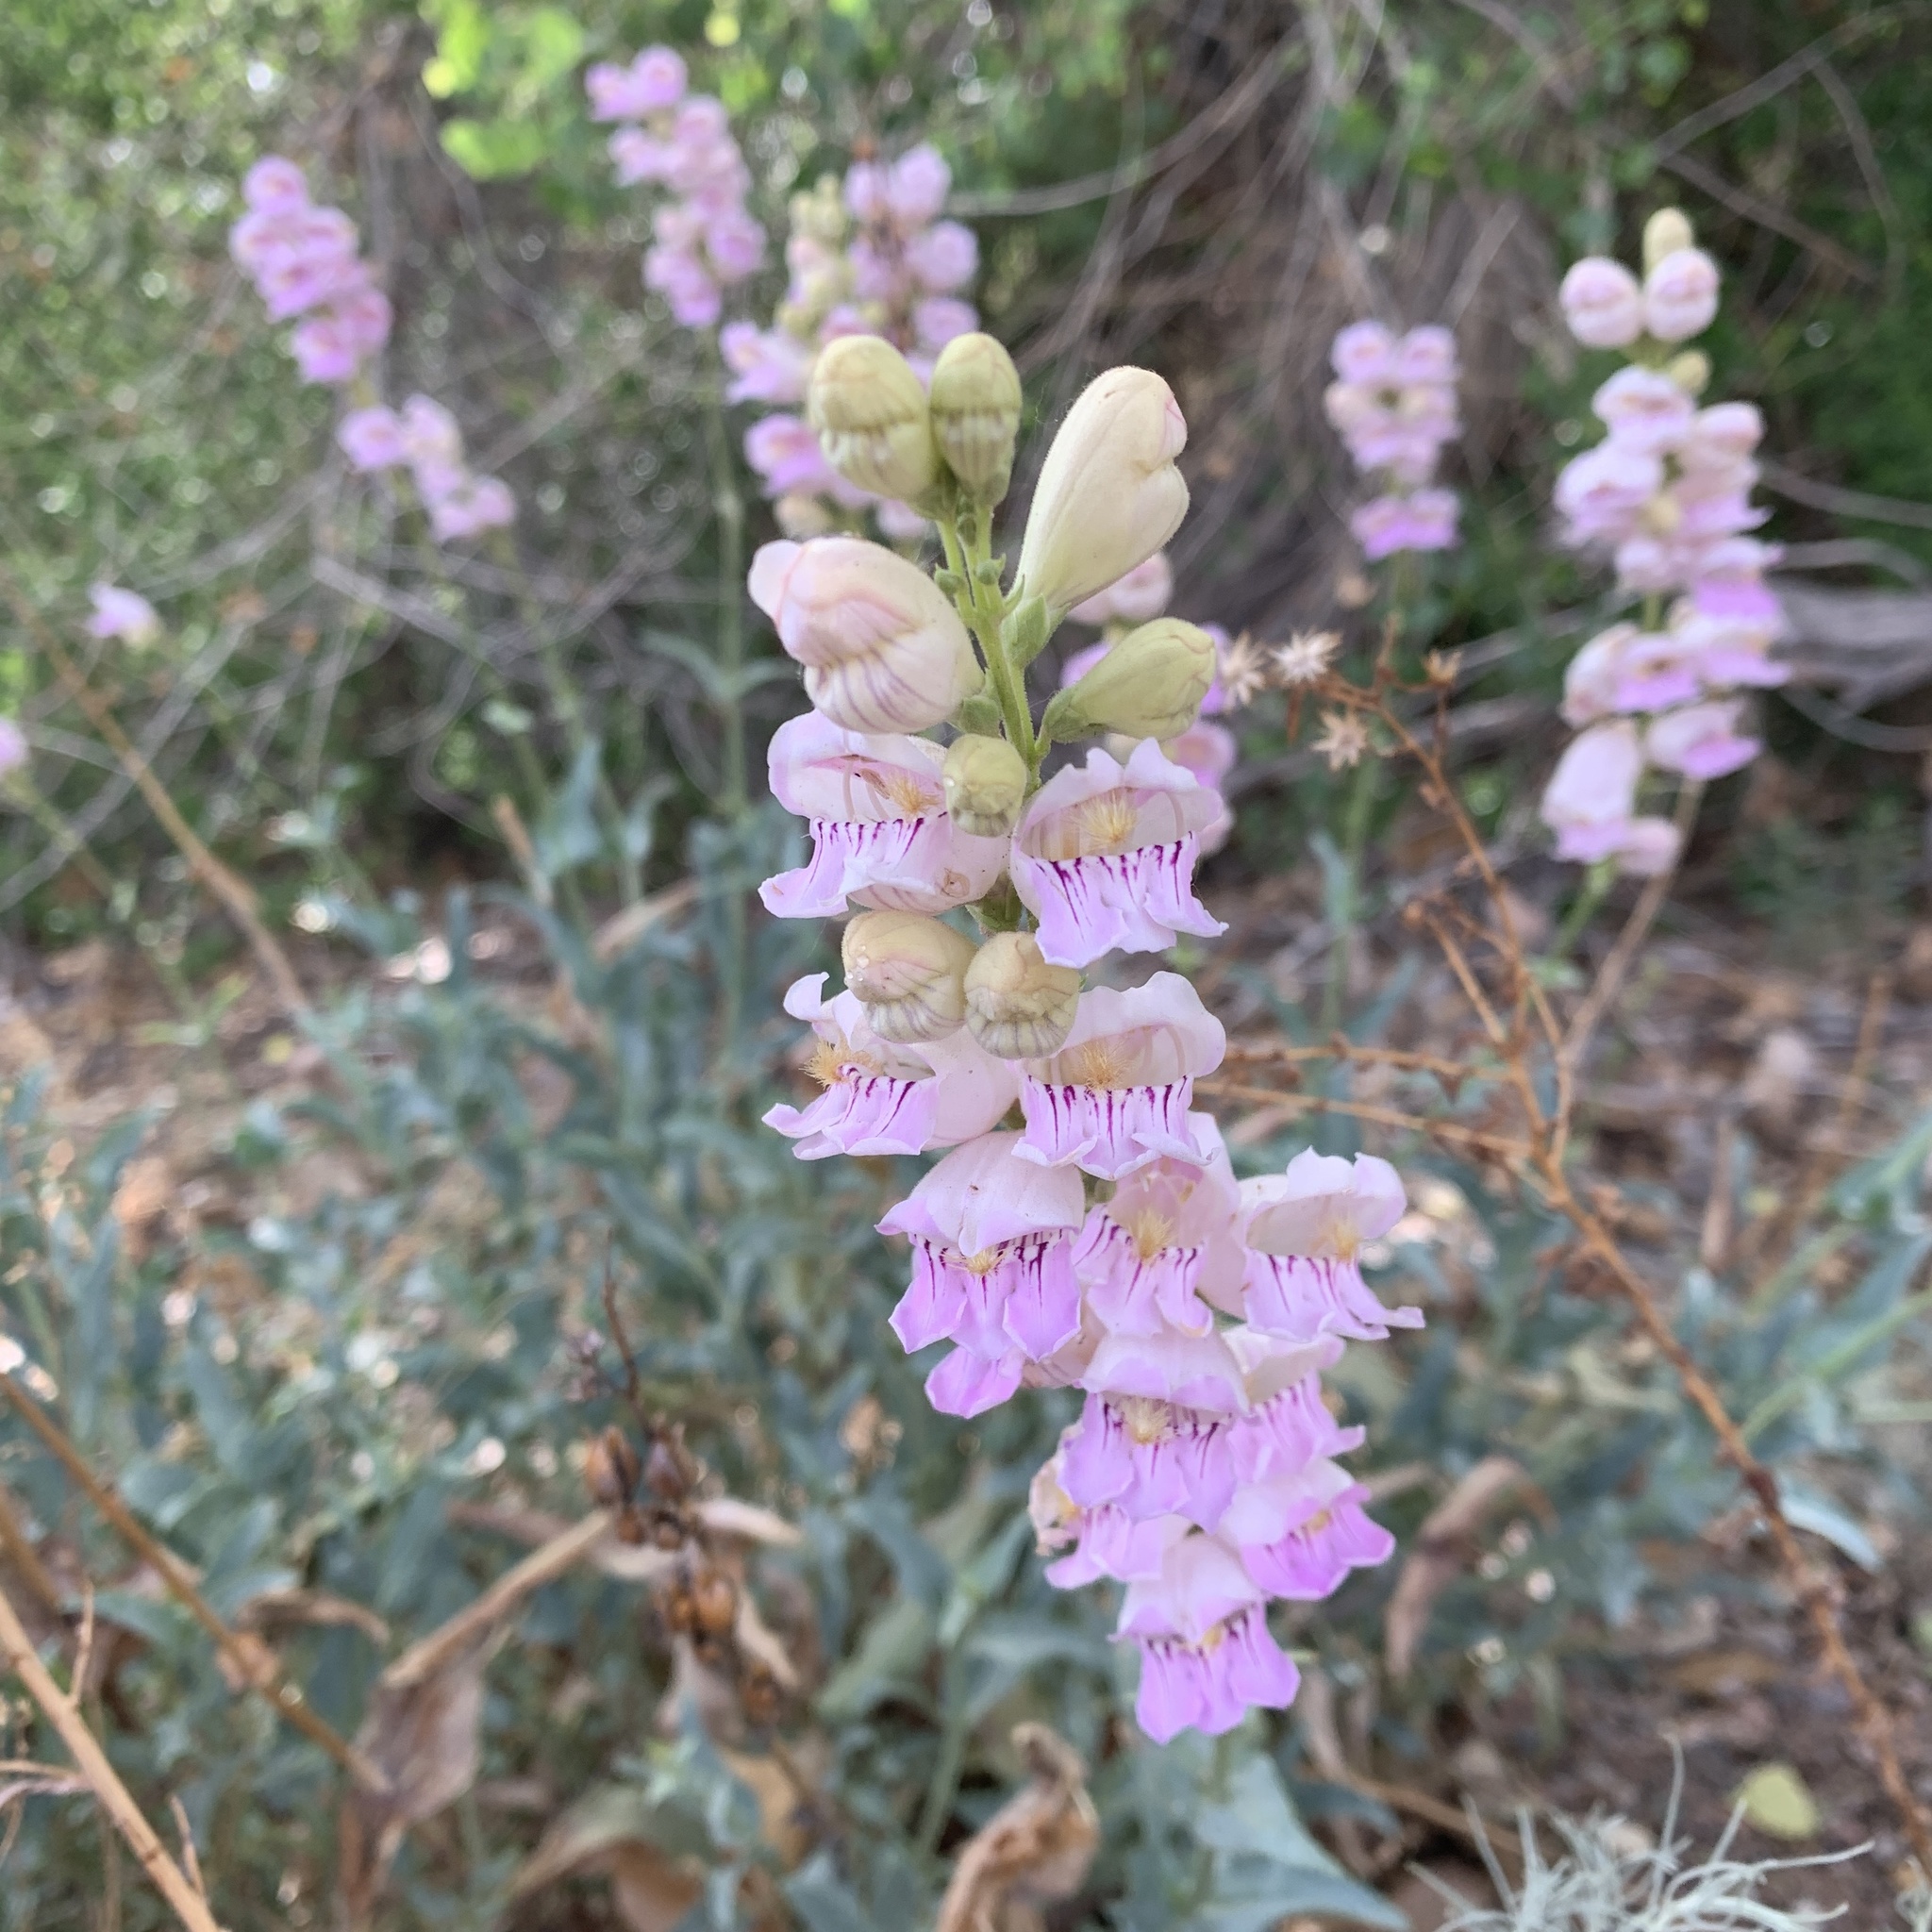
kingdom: Plantae
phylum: Tracheophyta
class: Magnoliopsida
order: Lamiales
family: Plantaginaceae
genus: Penstemon
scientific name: Penstemon palmeri
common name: Palmer penstemon
